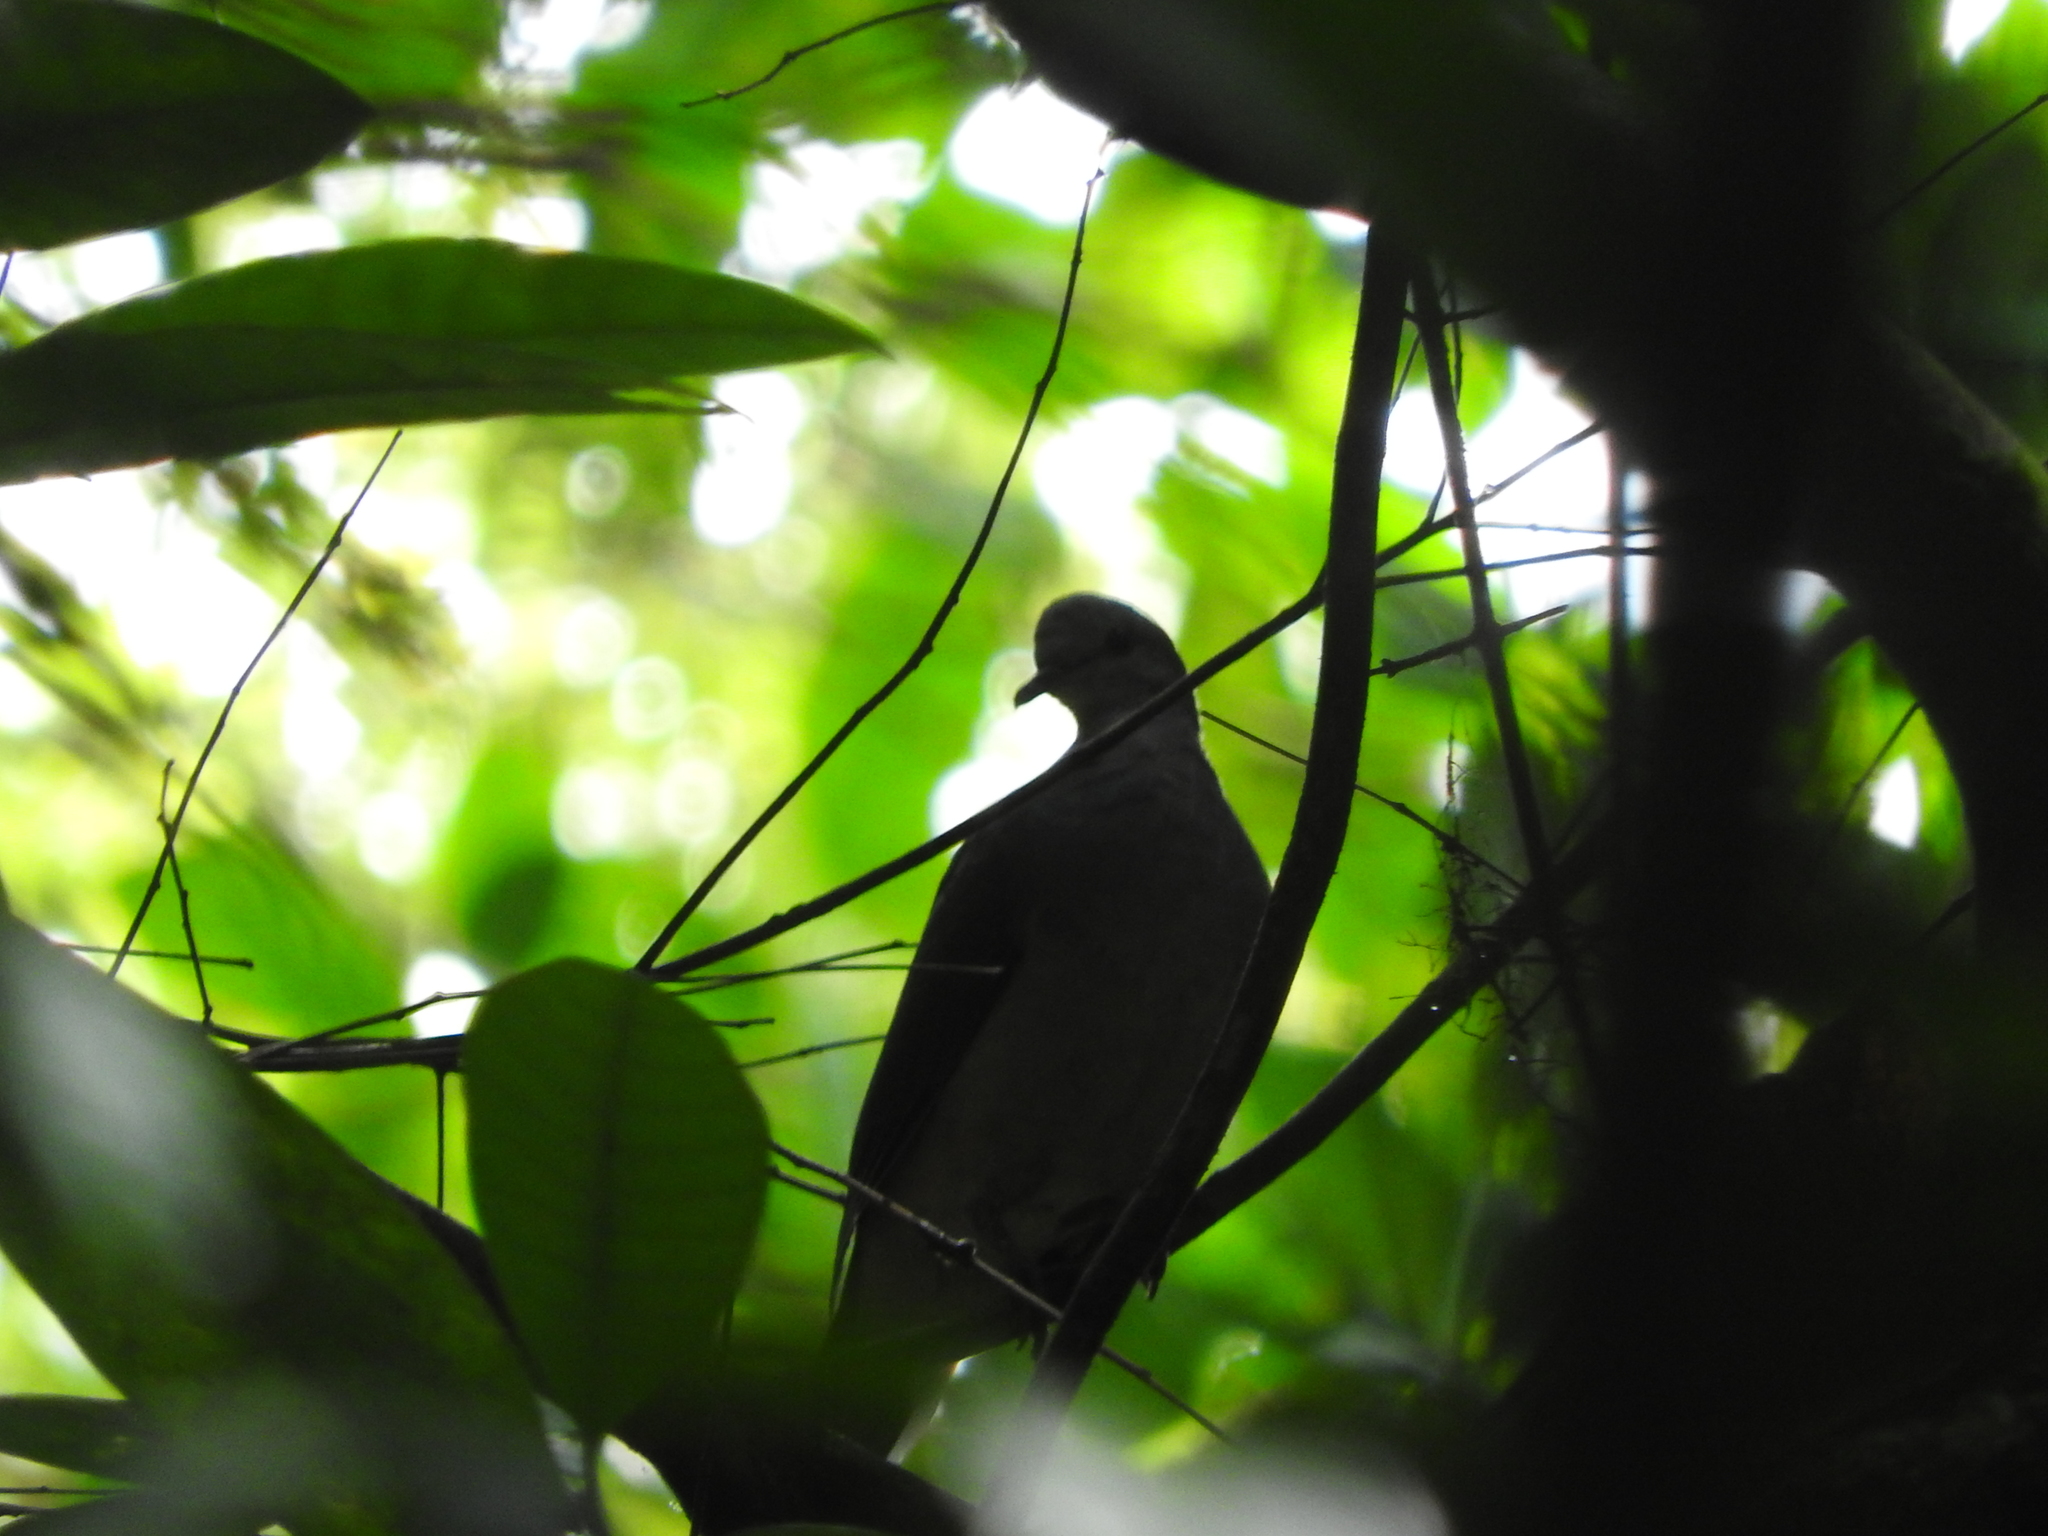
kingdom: Animalia
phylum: Chordata
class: Aves
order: Columbiformes
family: Columbidae
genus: Columba
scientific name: Columba malherbii
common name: Island bronze-naped pigeon
